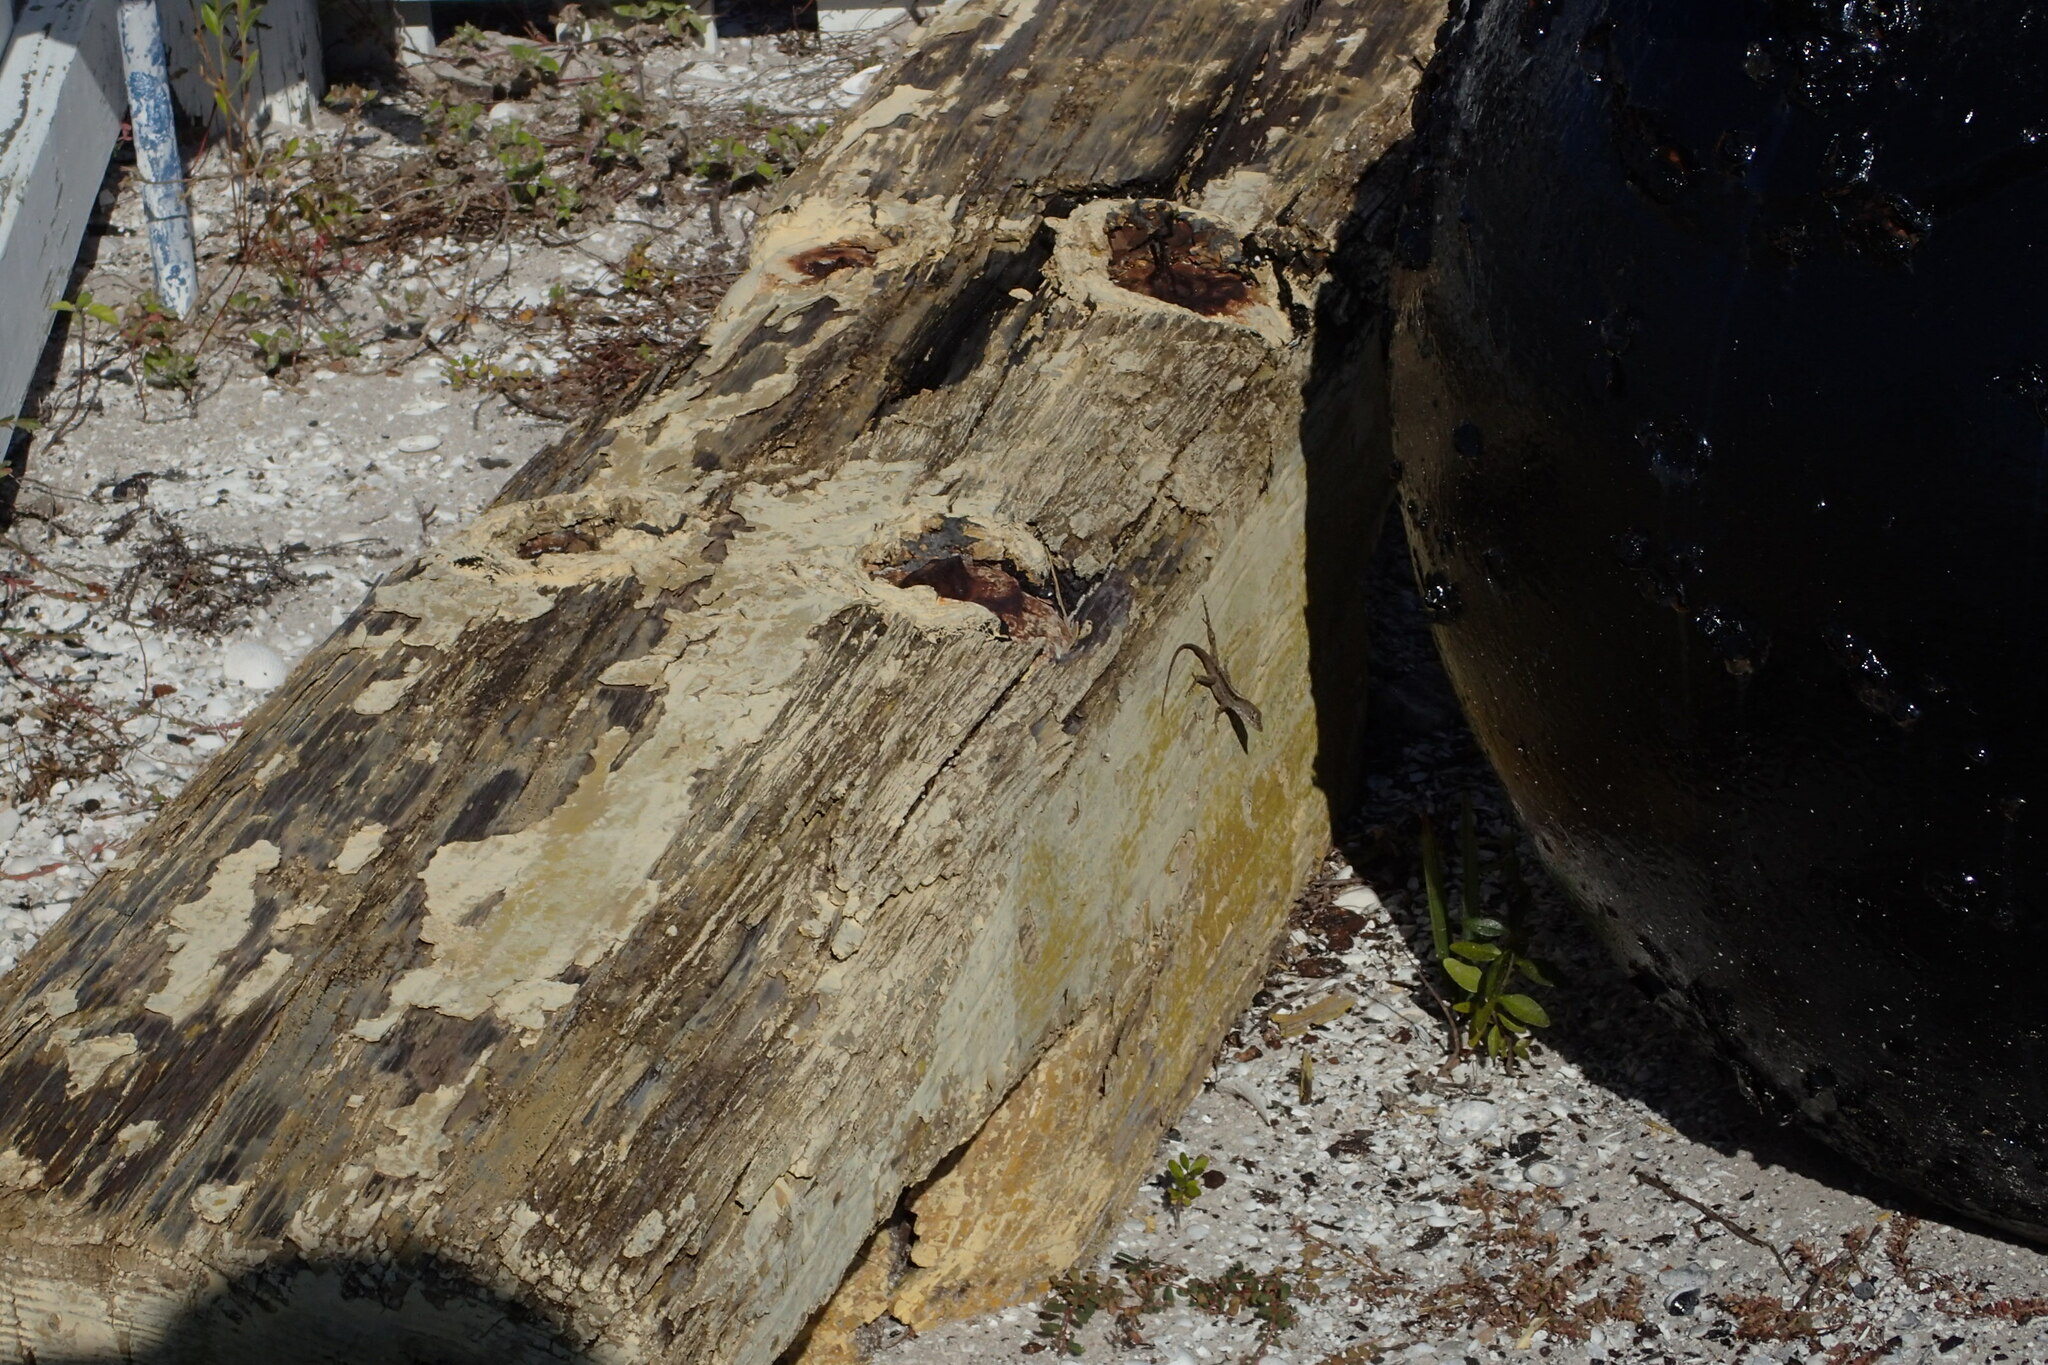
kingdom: Animalia
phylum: Chordata
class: Squamata
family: Dactyloidae
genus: Anolis
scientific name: Anolis sagrei
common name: Brown anole
